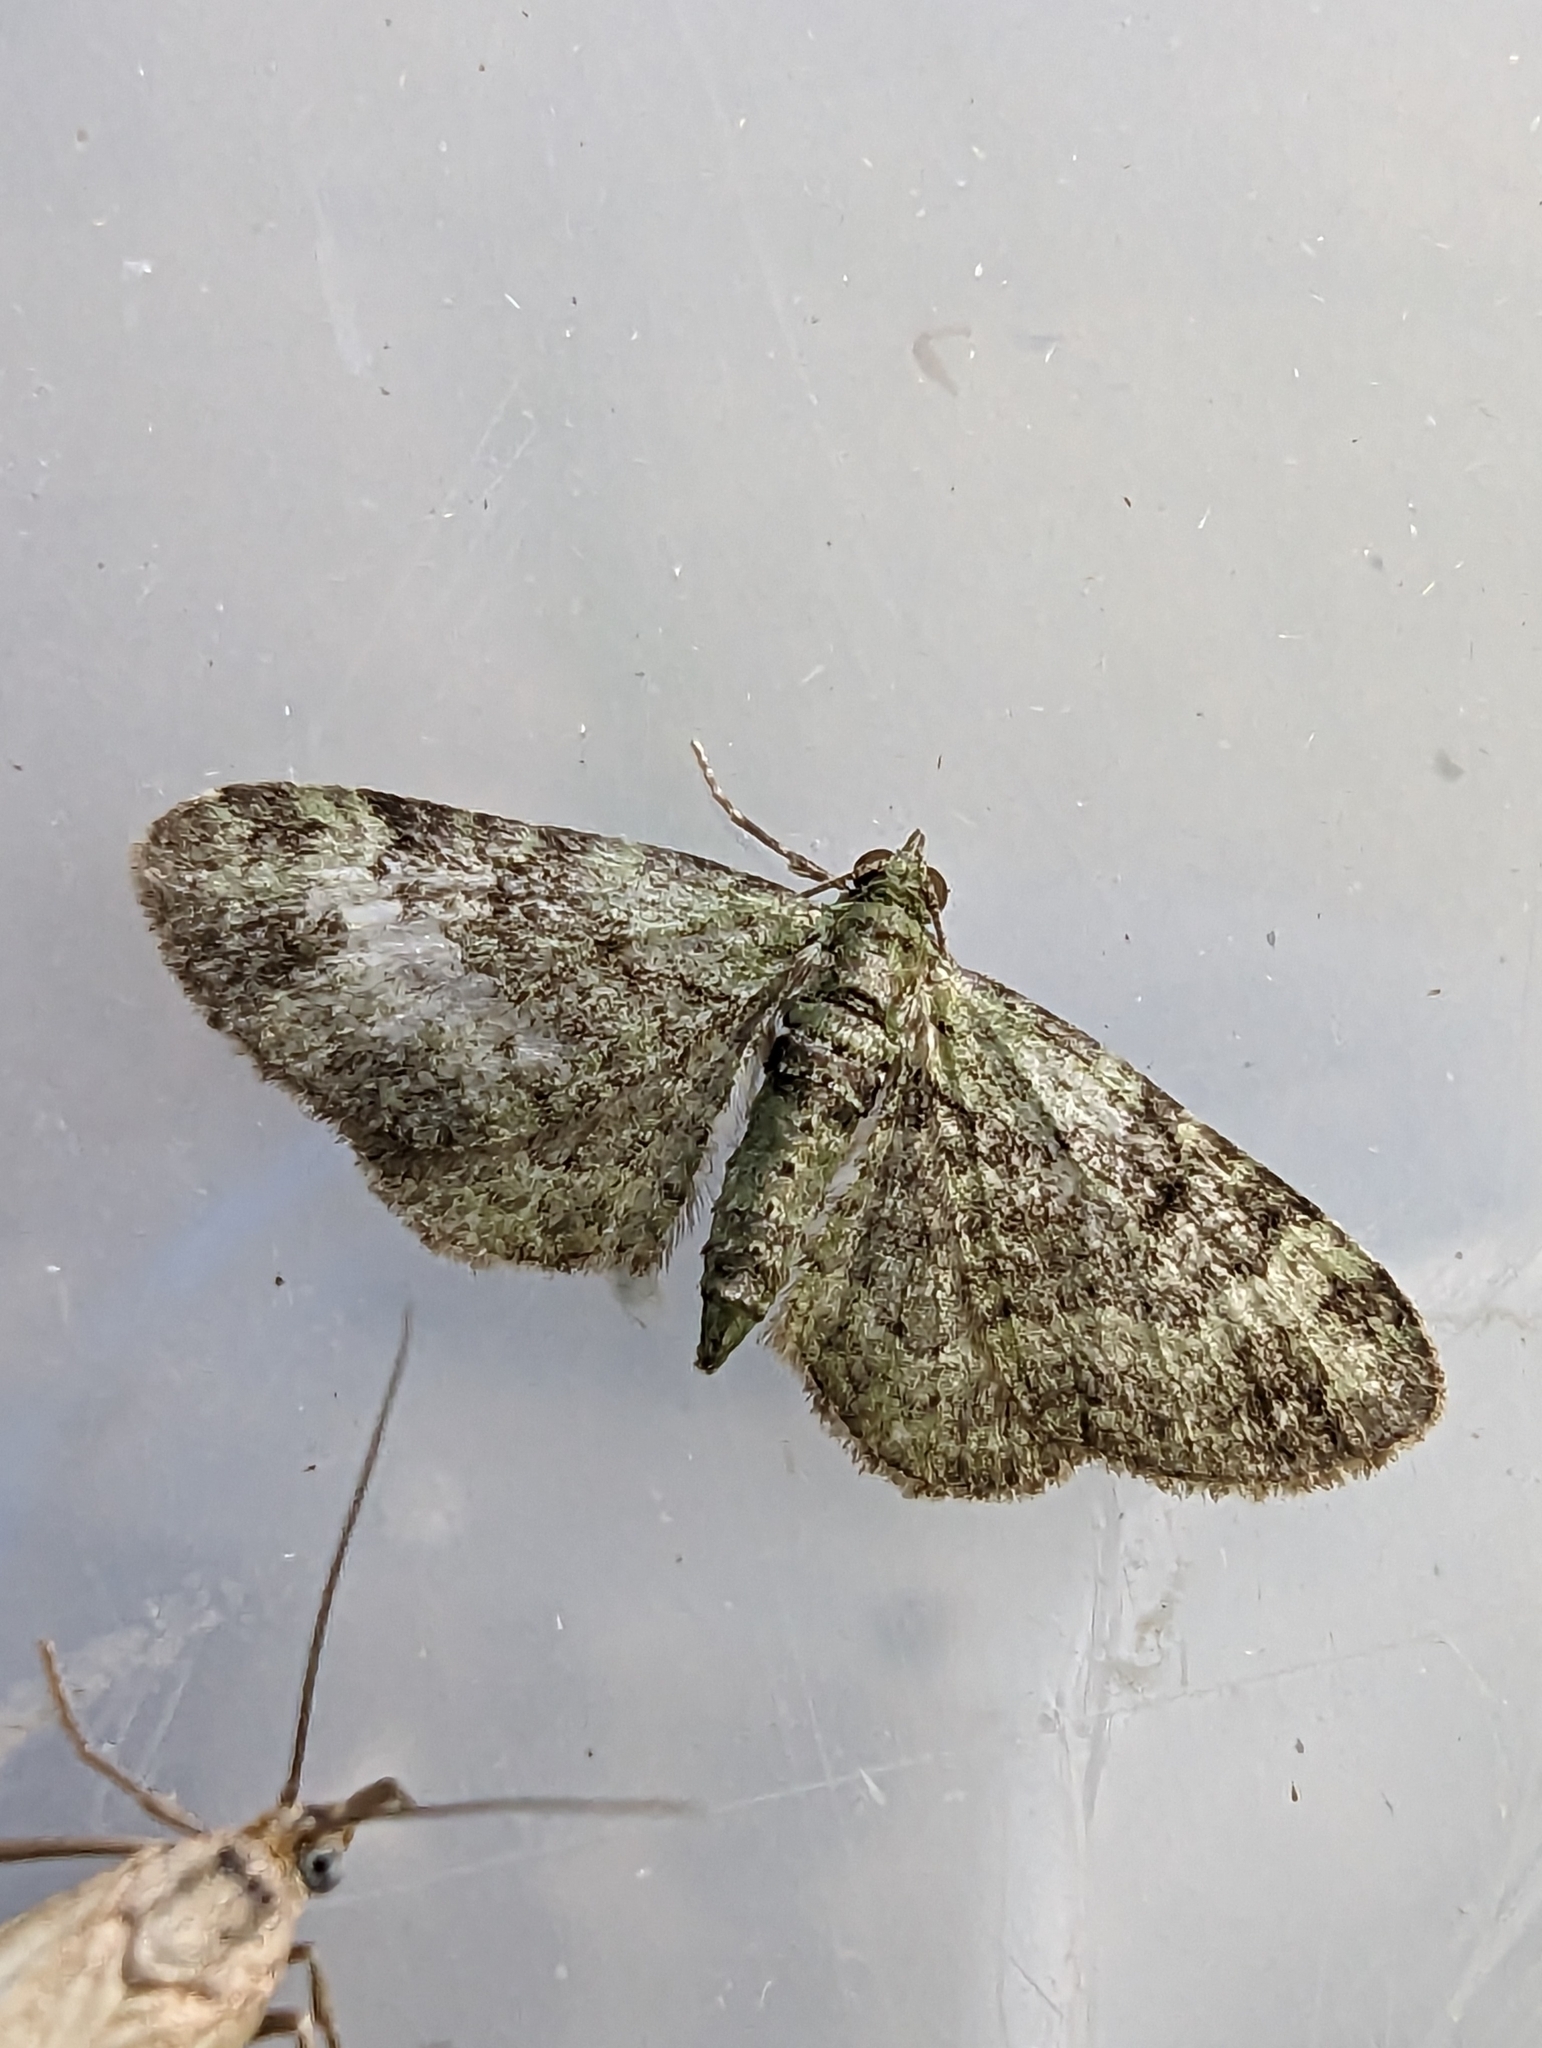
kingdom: Animalia
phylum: Arthropoda
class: Insecta
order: Lepidoptera
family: Geometridae
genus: Pasiphila
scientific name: Pasiphila rectangulata
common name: Green pug
